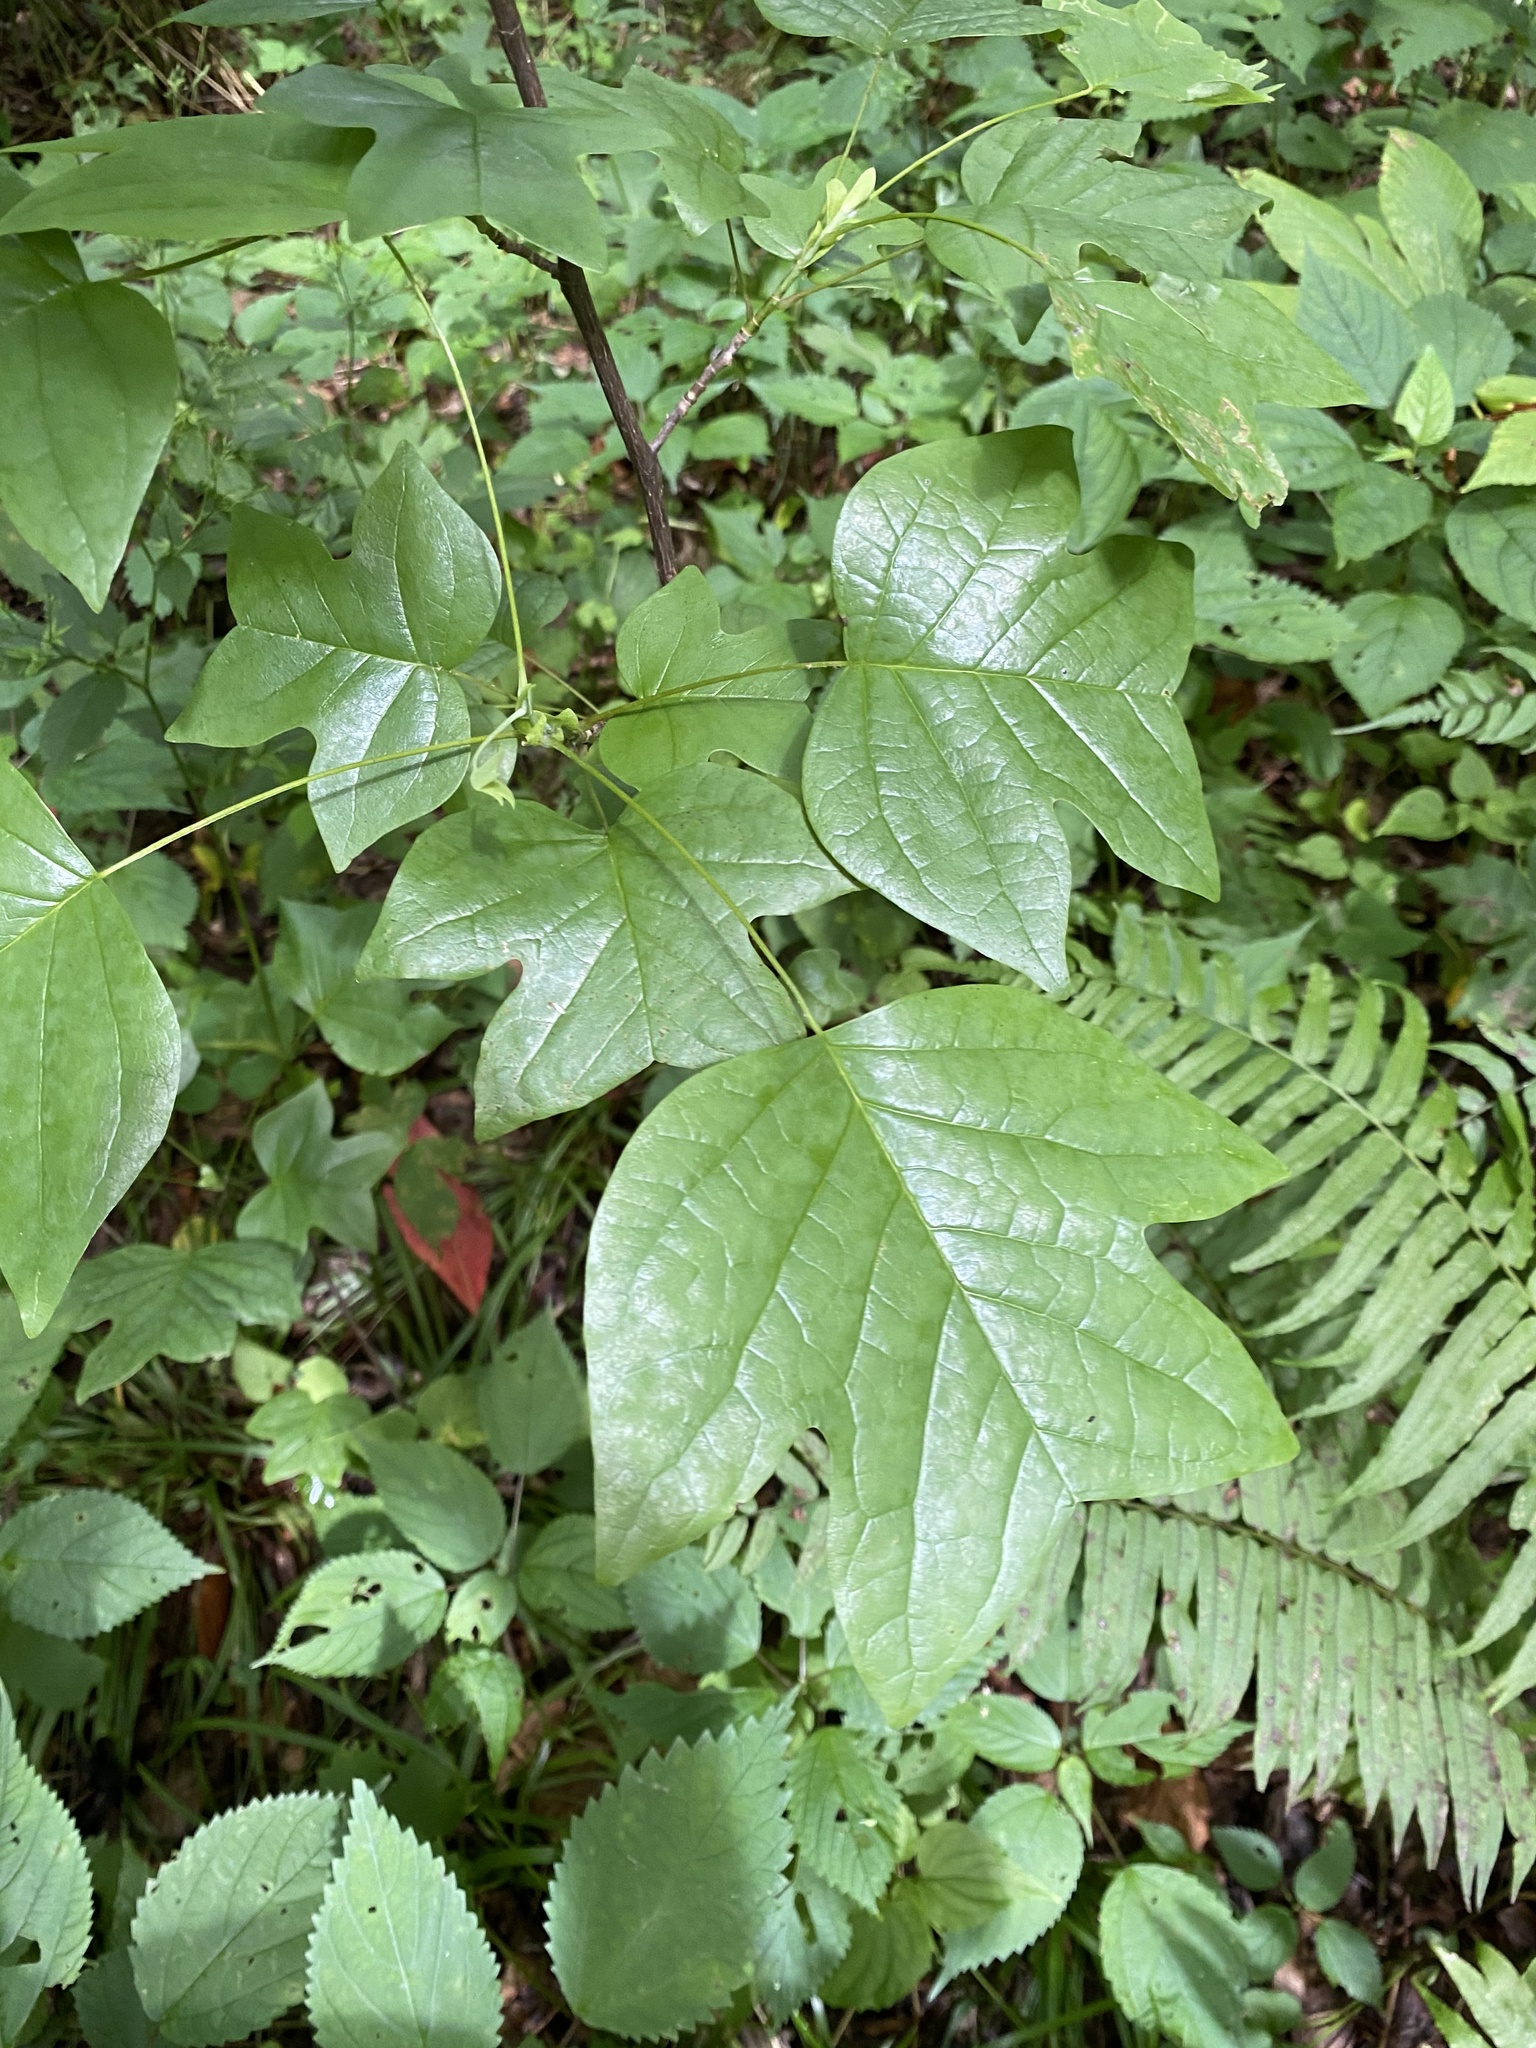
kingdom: Plantae
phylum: Tracheophyta
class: Magnoliopsida
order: Magnoliales
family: Magnoliaceae
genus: Liriodendron
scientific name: Liriodendron tulipifera
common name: Tulip tree
